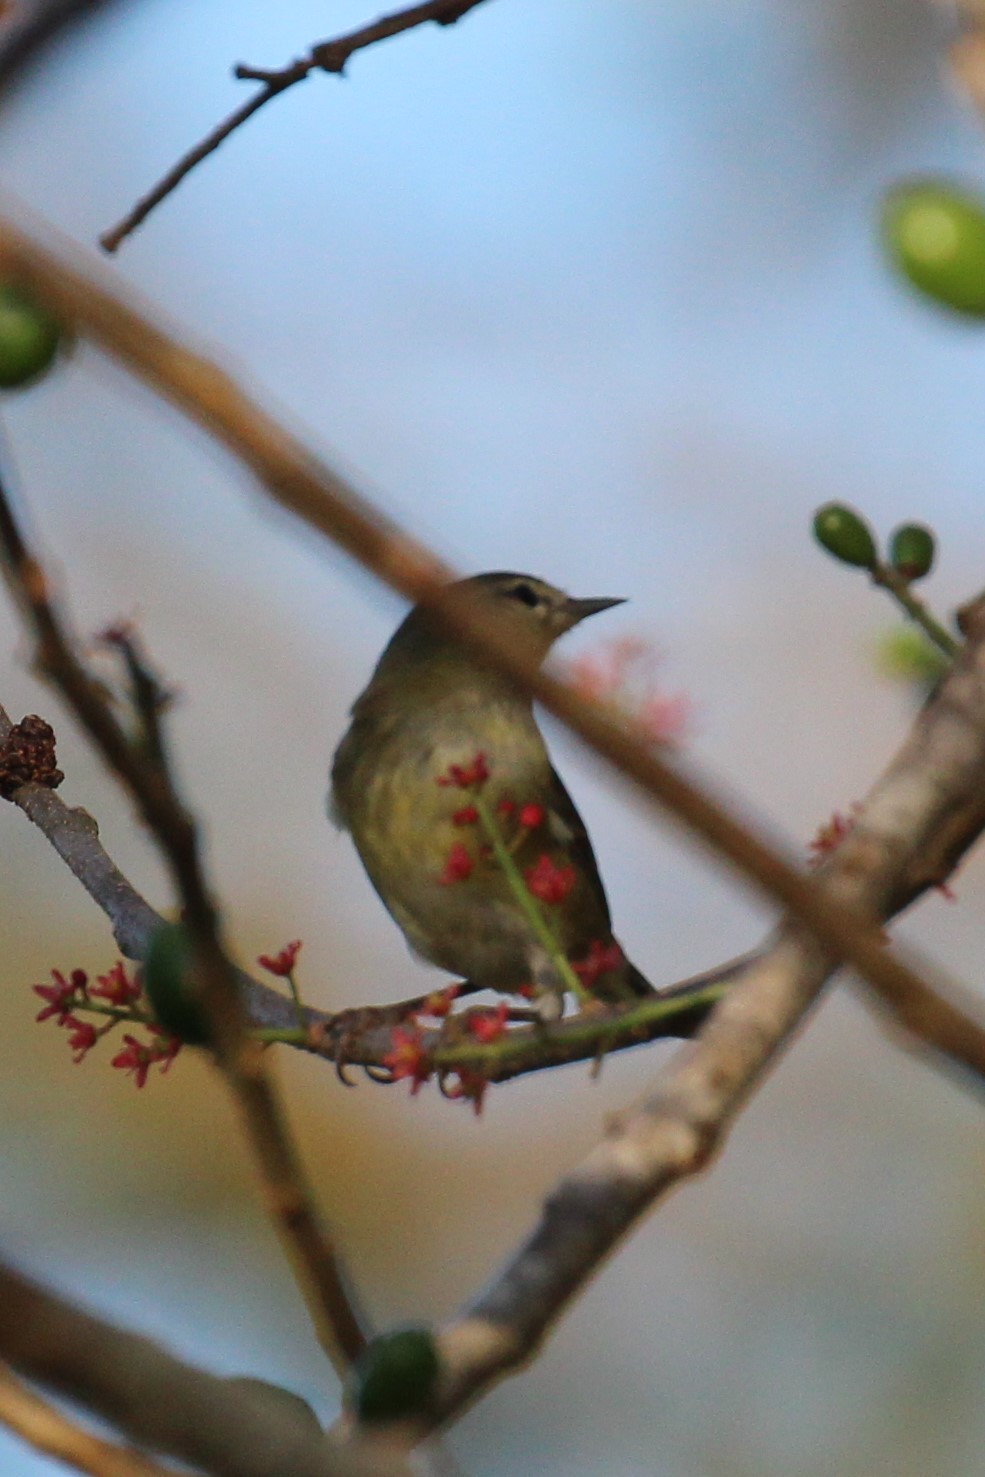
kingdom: Animalia
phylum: Chordata
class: Aves
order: Passeriformes
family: Parulidae
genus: Leiothlypis
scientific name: Leiothlypis peregrina
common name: Tennessee warbler
